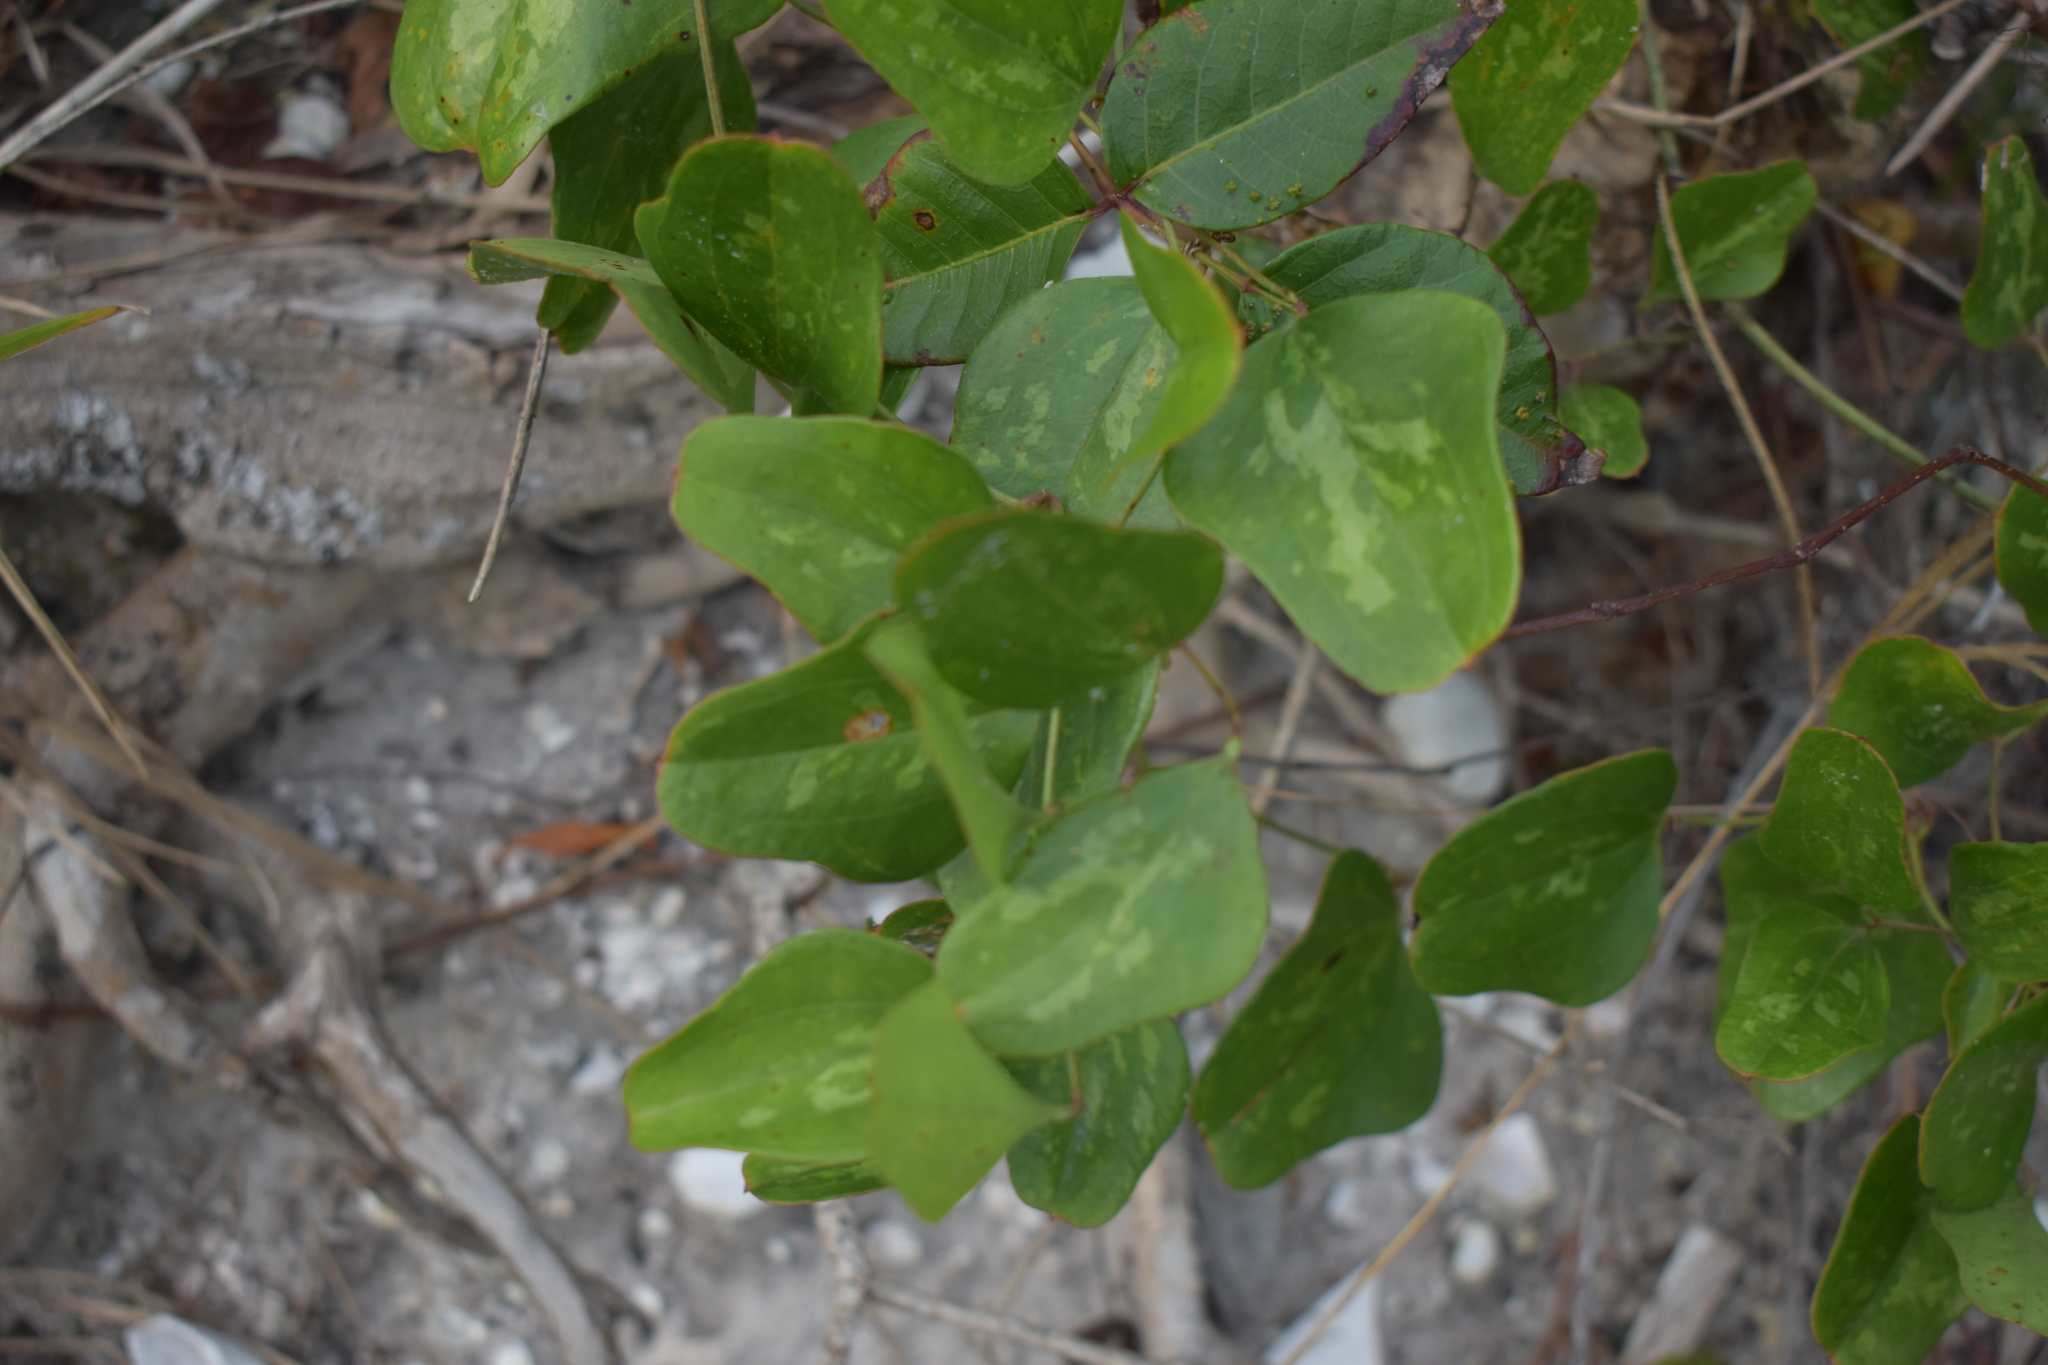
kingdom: Plantae
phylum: Tracheophyta
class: Liliopsida
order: Liliales
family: Smilacaceae
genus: Smilax
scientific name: Smilax auriculata
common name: Wild bamboo
